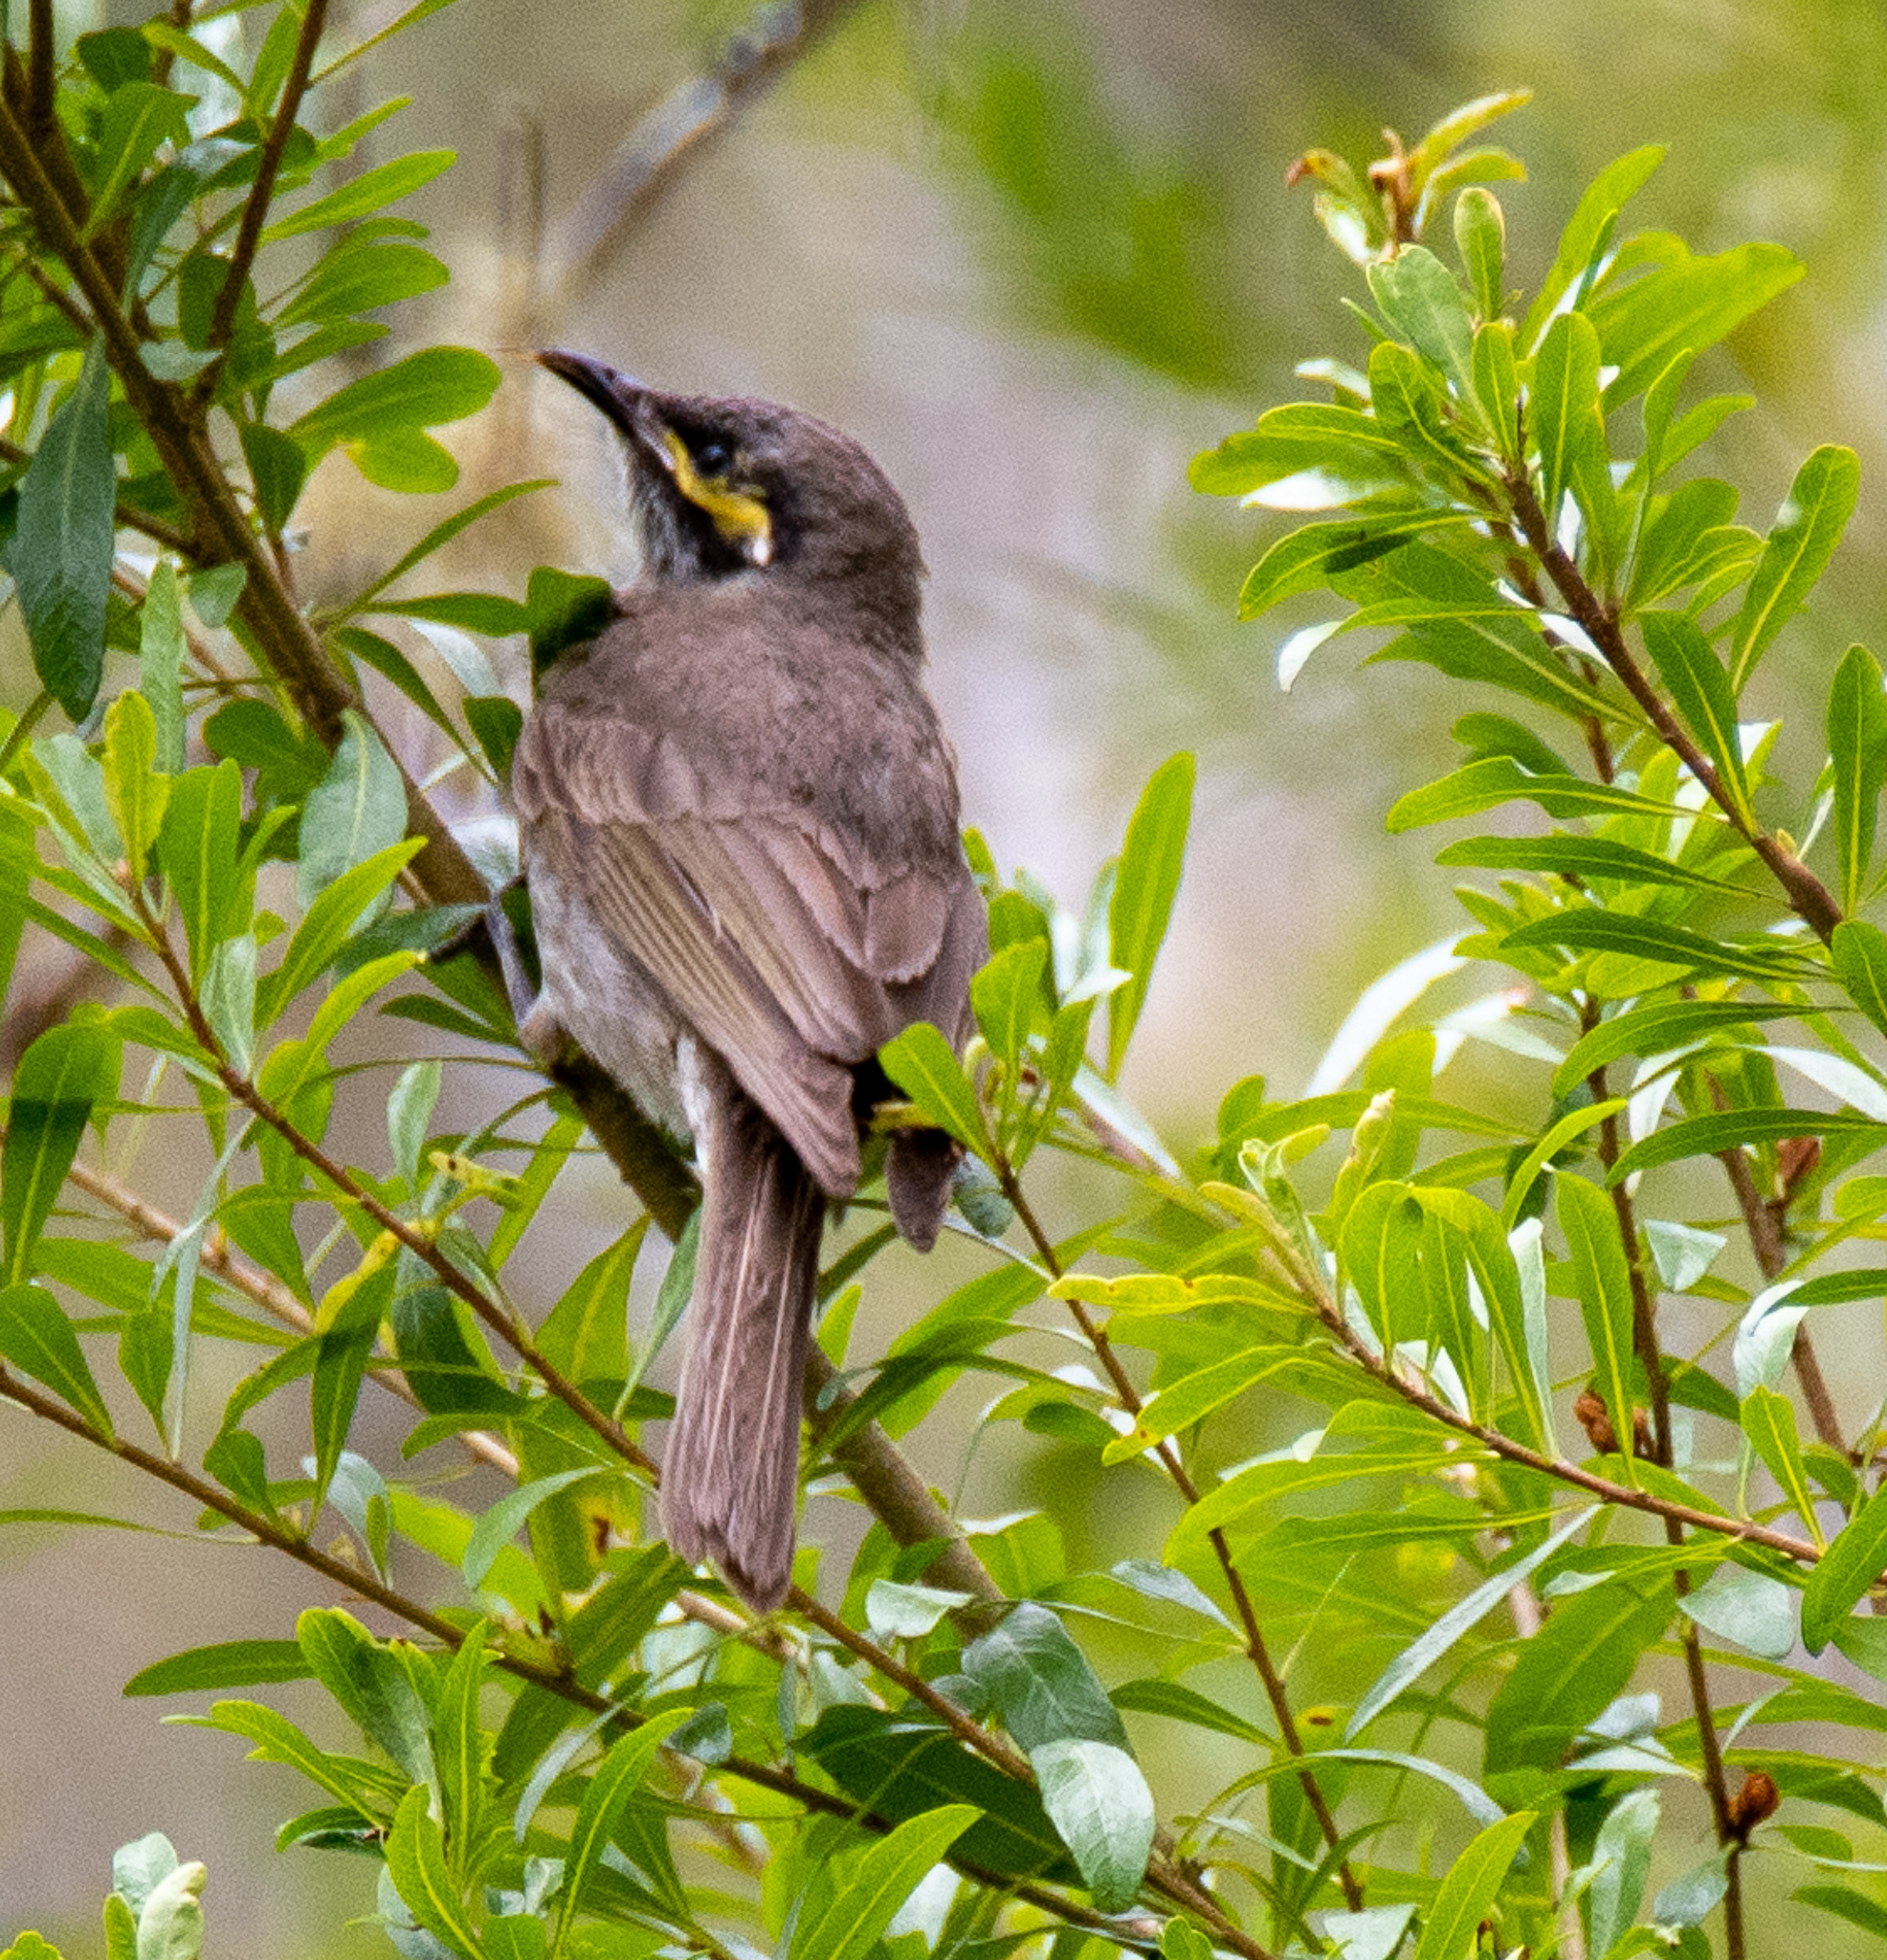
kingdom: Animalia
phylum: Chordata
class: Aves
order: Passeriformes
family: Meliphagidae
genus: Caligavis
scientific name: Caligavis chrysops
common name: Yellow-faced honeyeater
